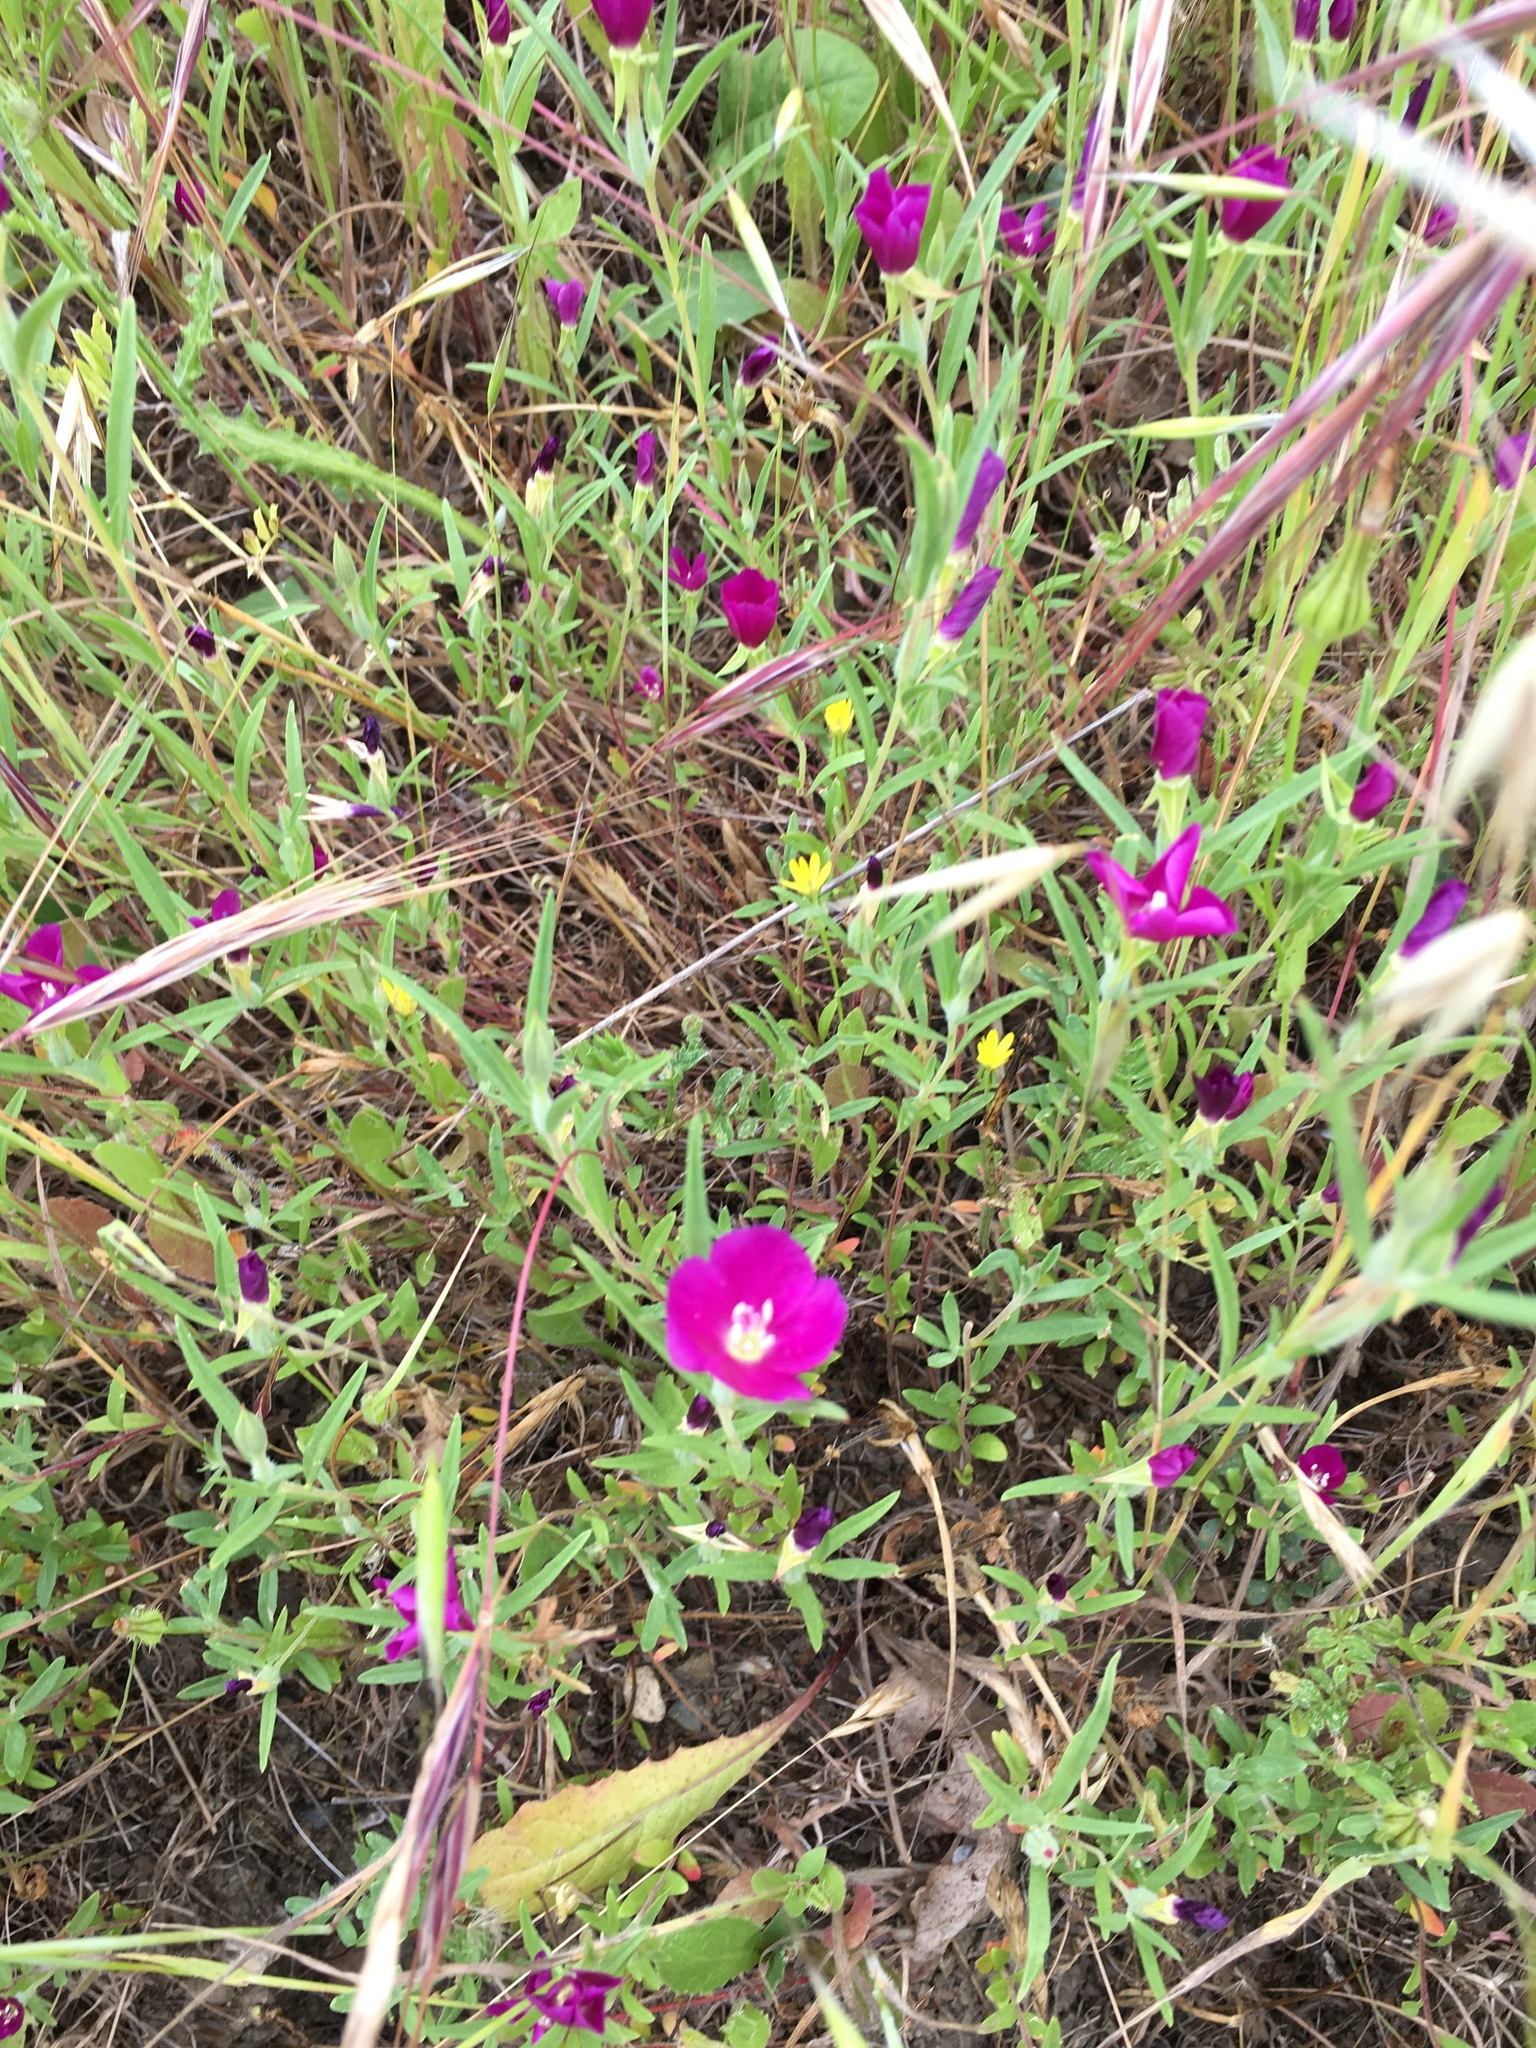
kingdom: Plantae
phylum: Tracheophyta
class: Magnoliopsida
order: Myrtales
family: Onagraceae
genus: Clarkia
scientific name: Clarkia purpurea
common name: Purple clarkia
